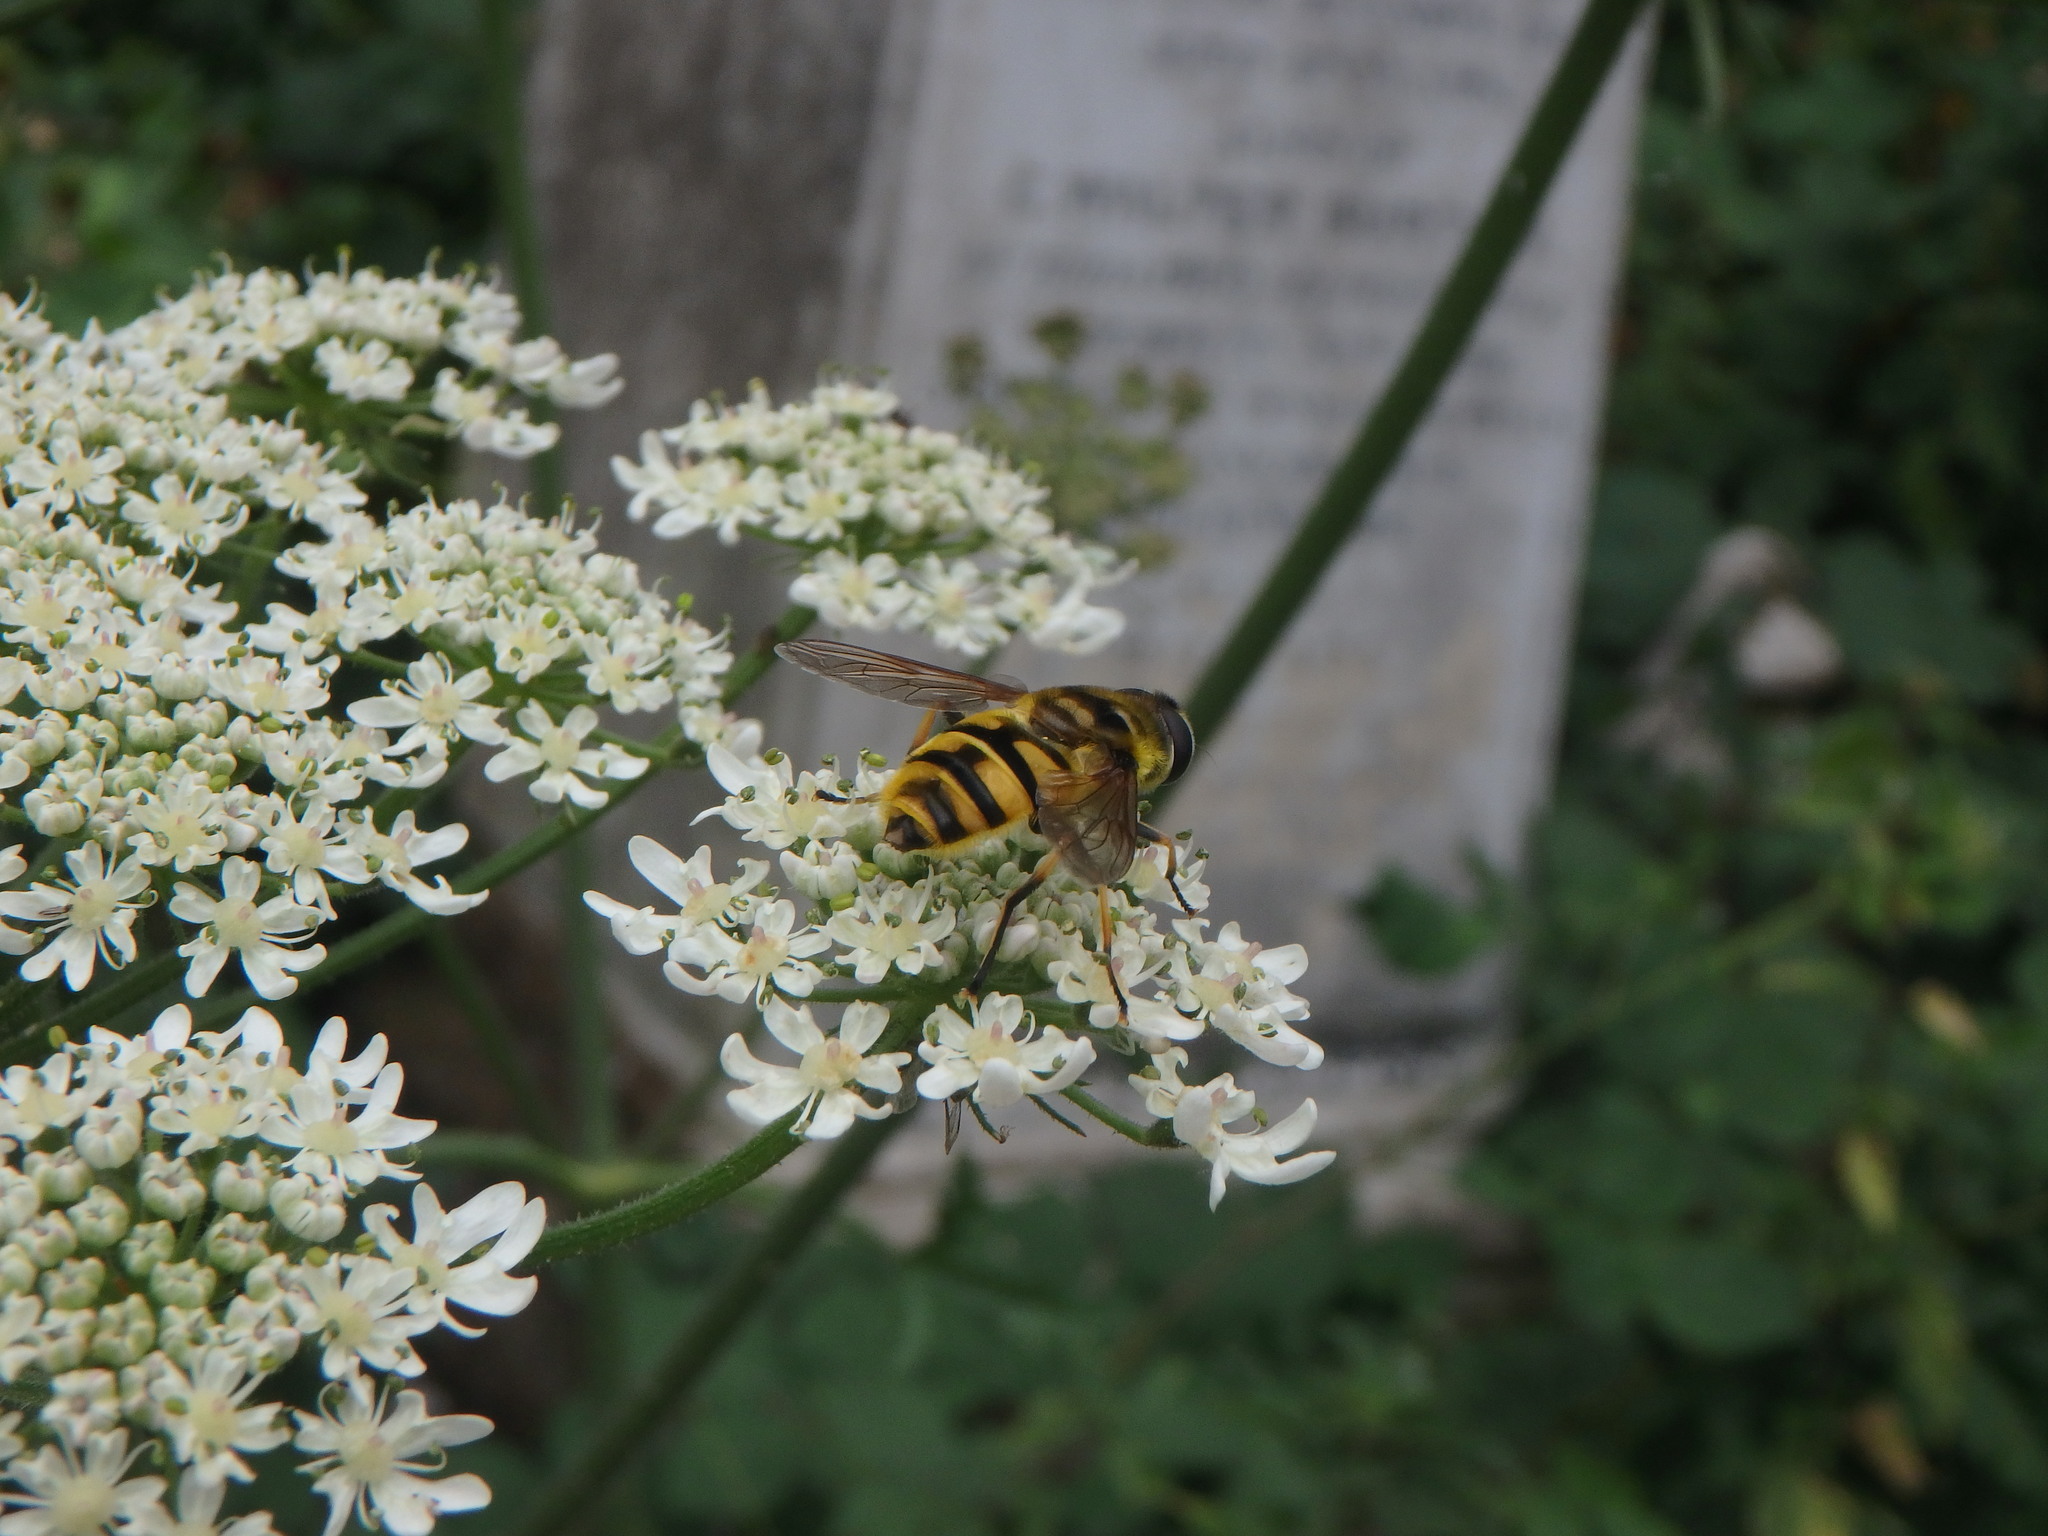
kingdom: Animalia
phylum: Arthropoda
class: Insecta
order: Diptera
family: Syrphidae
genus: Myathropa
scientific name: Myathropa florea
